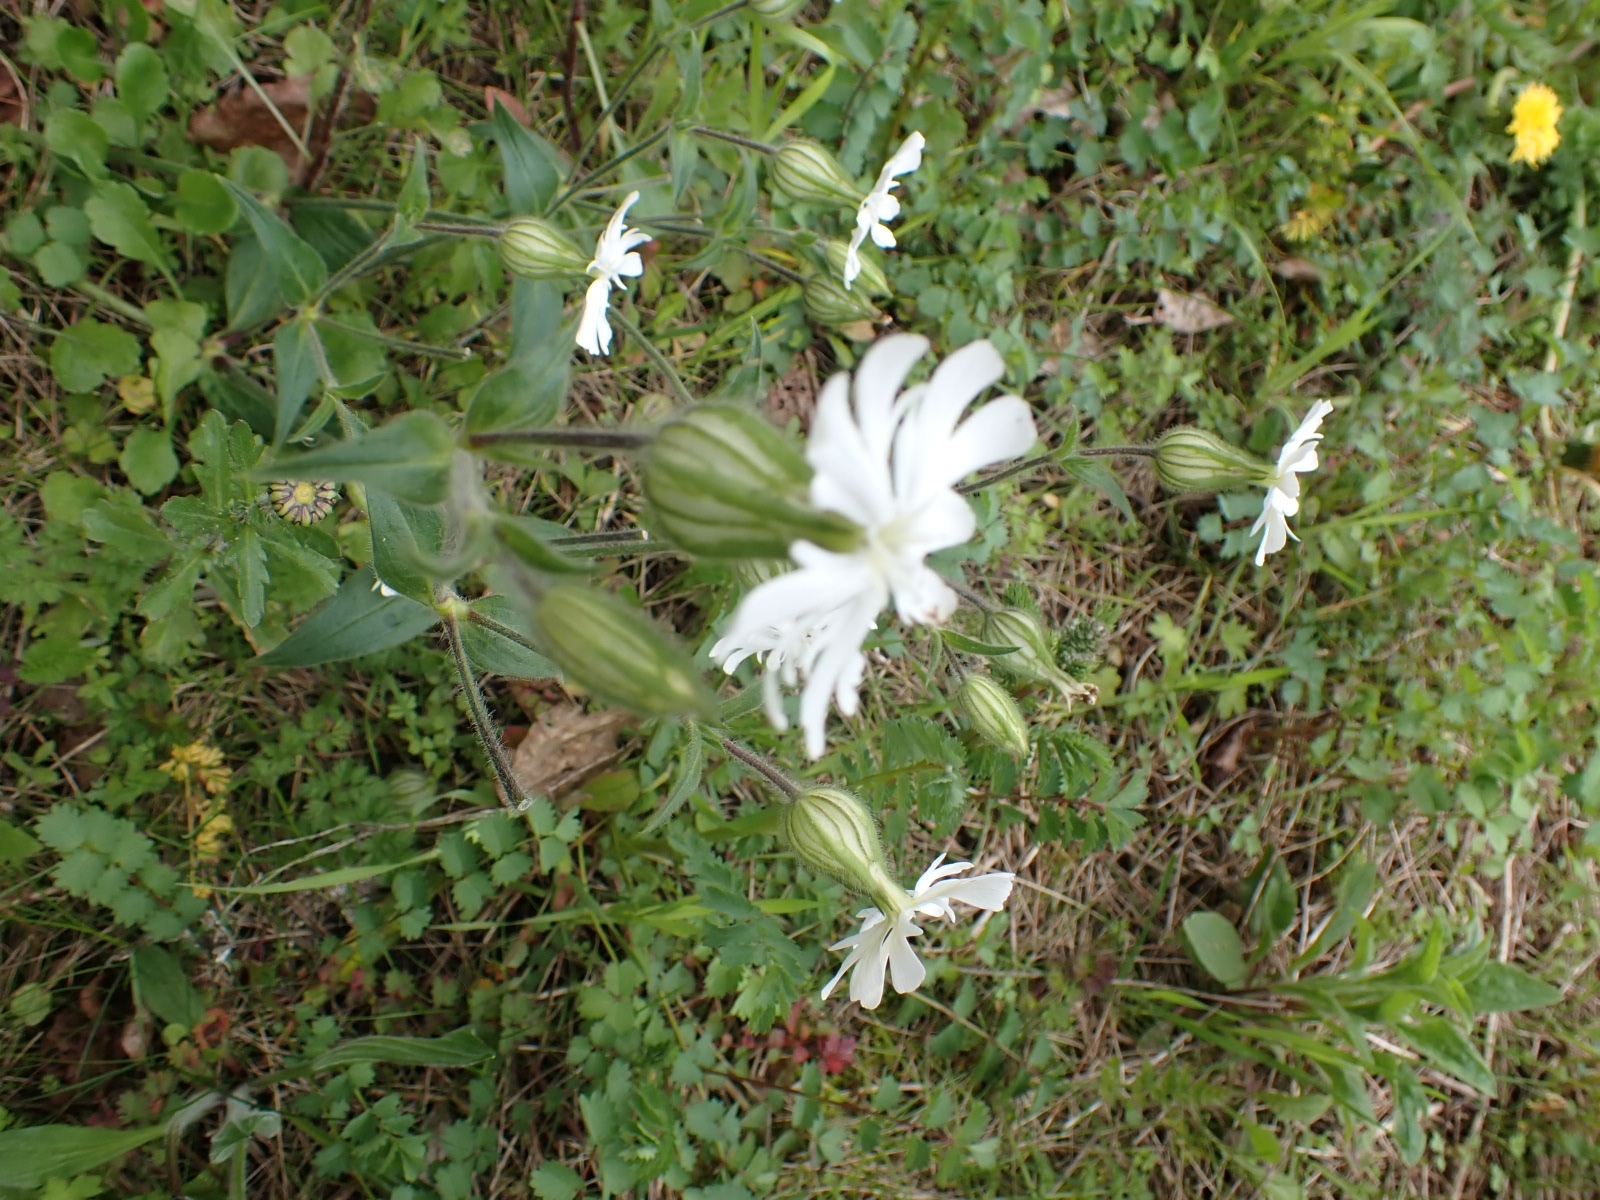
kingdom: Plantae
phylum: Tracheophyta
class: Magnoliopsida
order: Caryophyllales
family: Caryophyllaceae
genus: Silene
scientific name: Silene latifolia
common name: White campion
